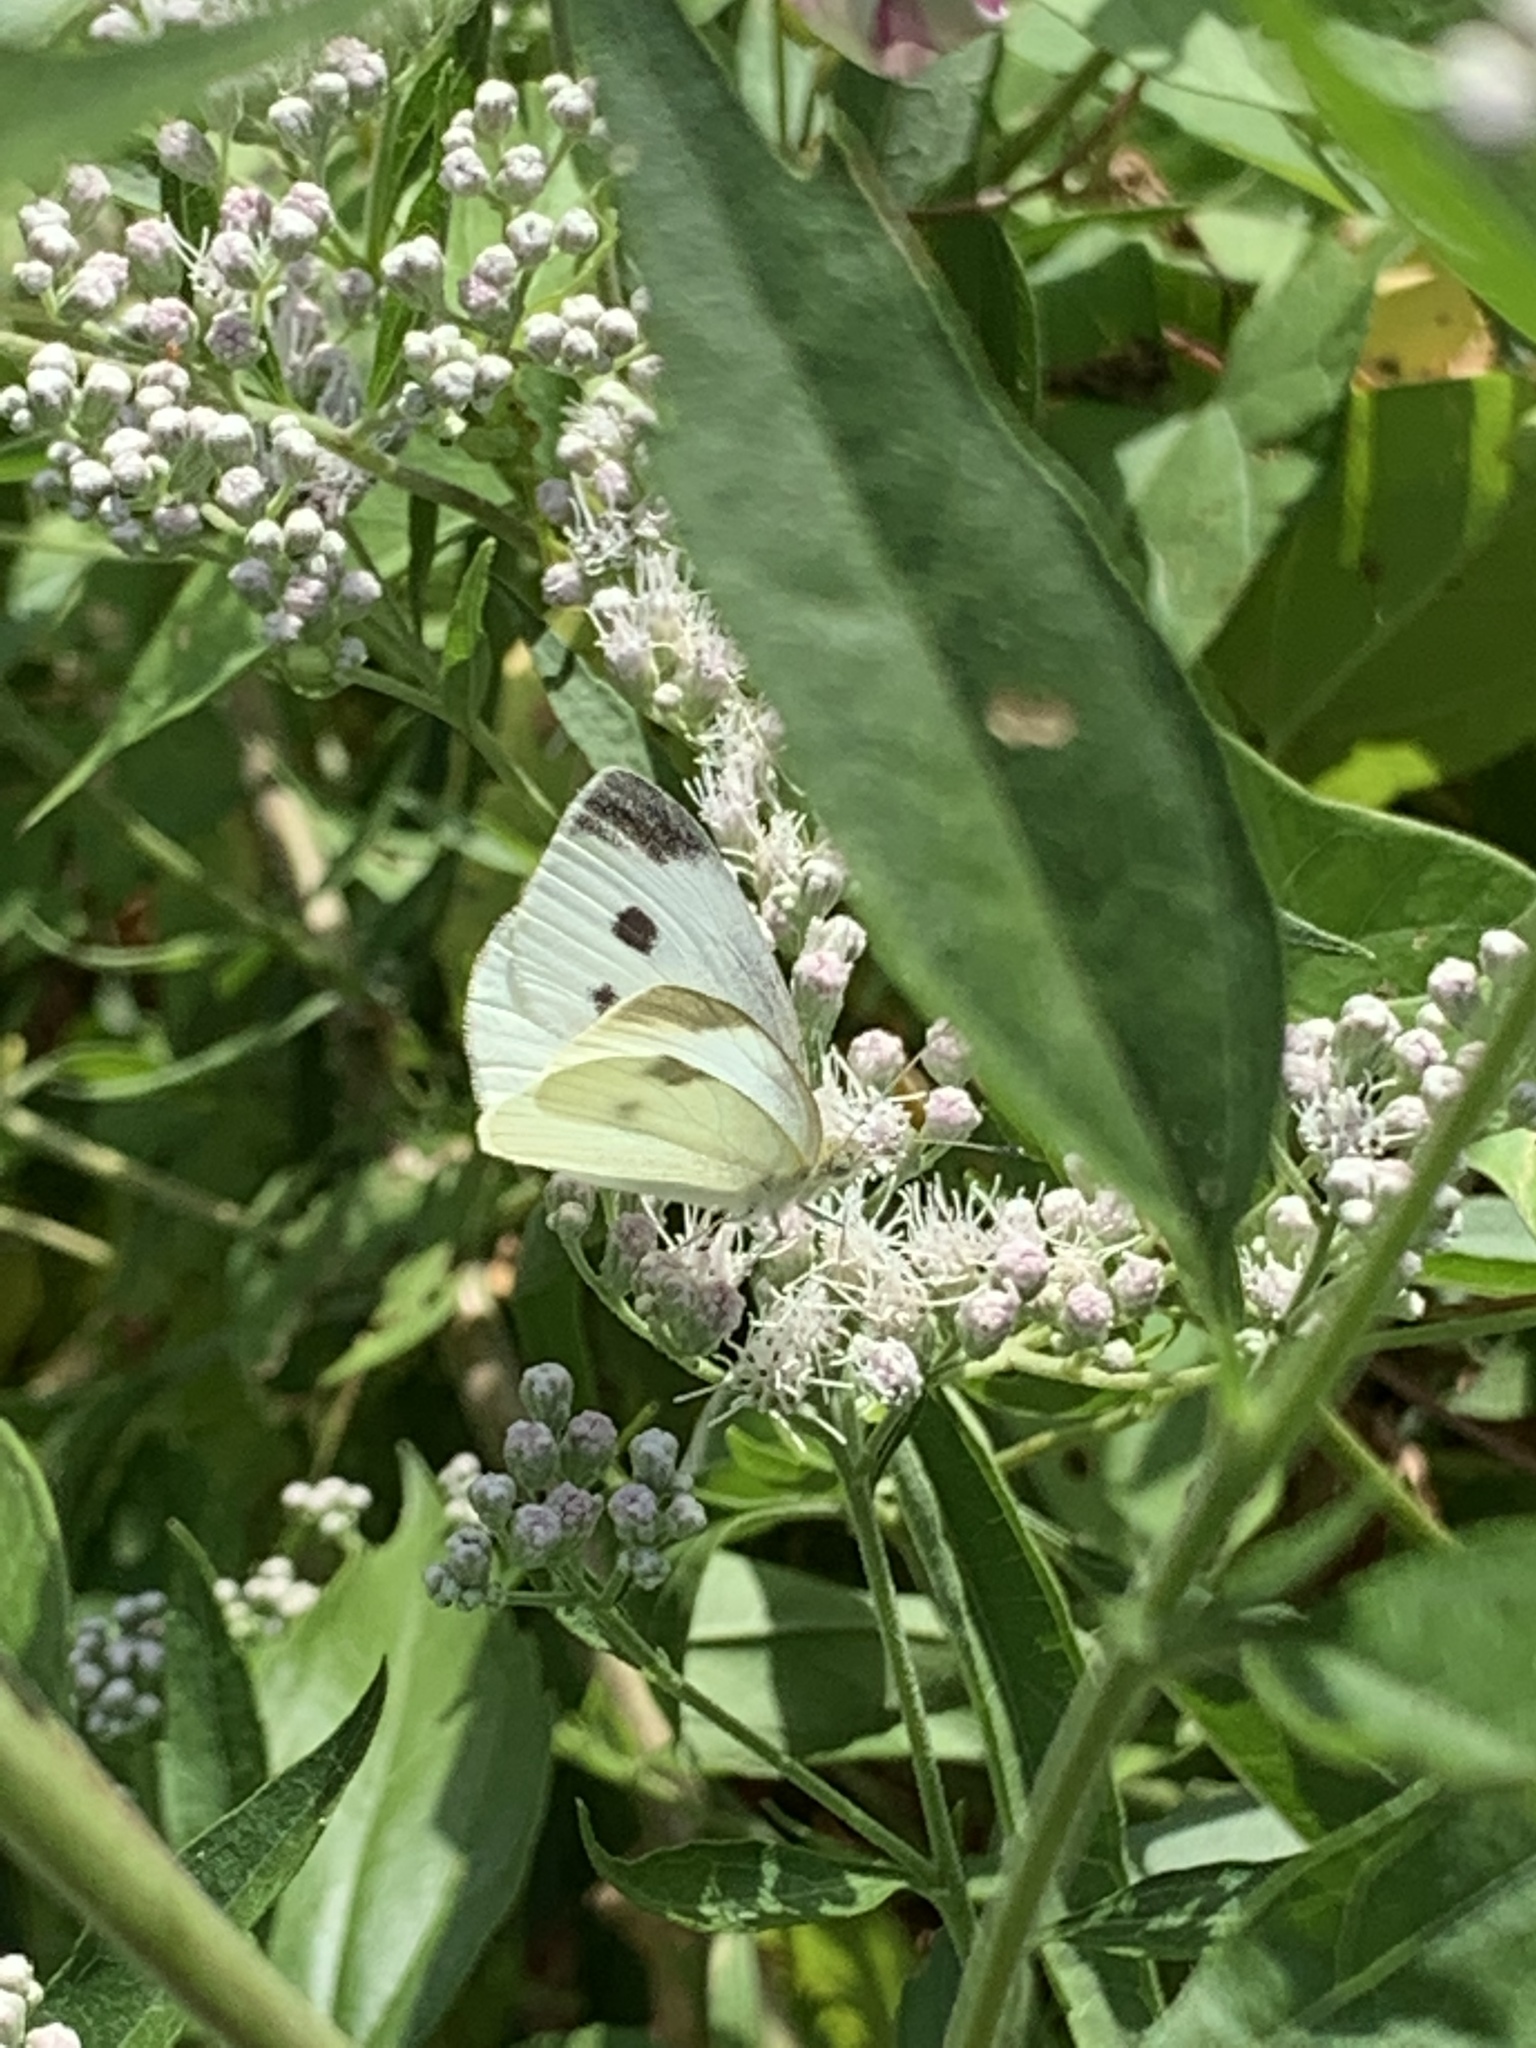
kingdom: Animalia
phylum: Arthropoda
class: Insecta
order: Lepidoptera
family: Pieridae
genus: Pieris
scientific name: Pieris rapae
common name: Small white
